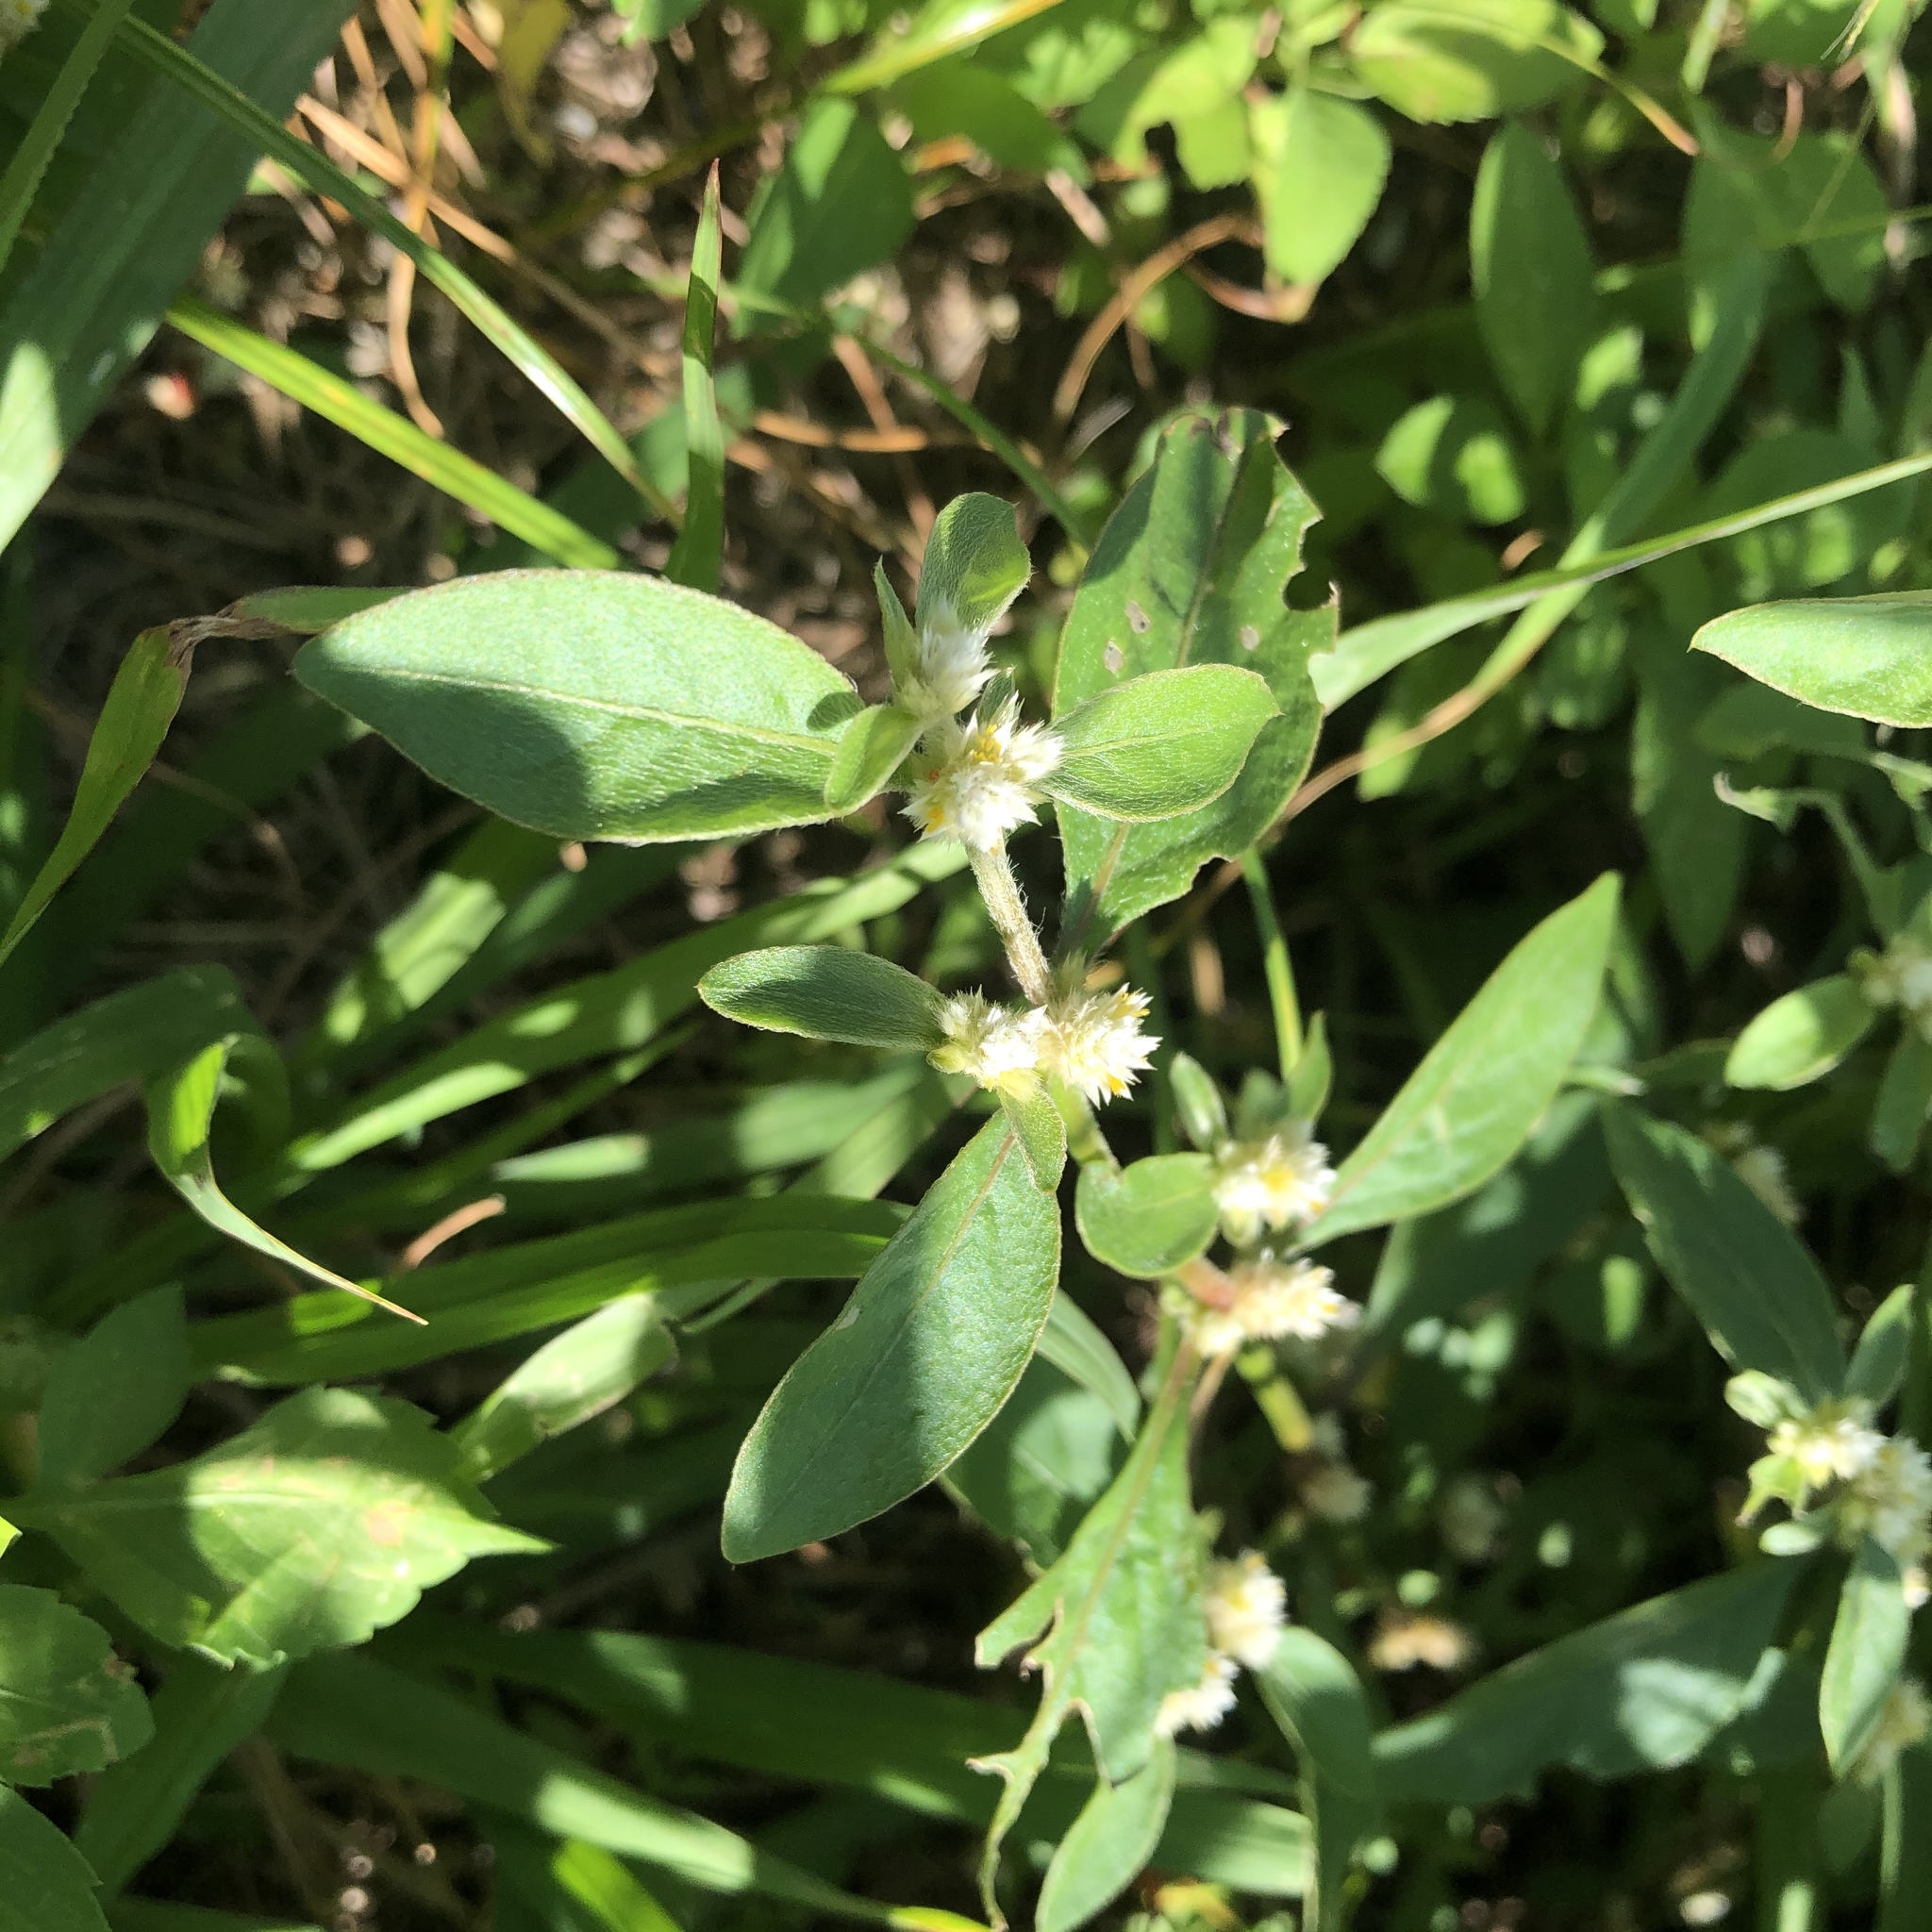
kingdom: Plantae
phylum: Tracheophyta
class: Magnoliopsida
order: Caryophyllales
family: Amaranthaceae
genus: Alternanthera
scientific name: Alternanthera bettzickiana
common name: Calico-plant
